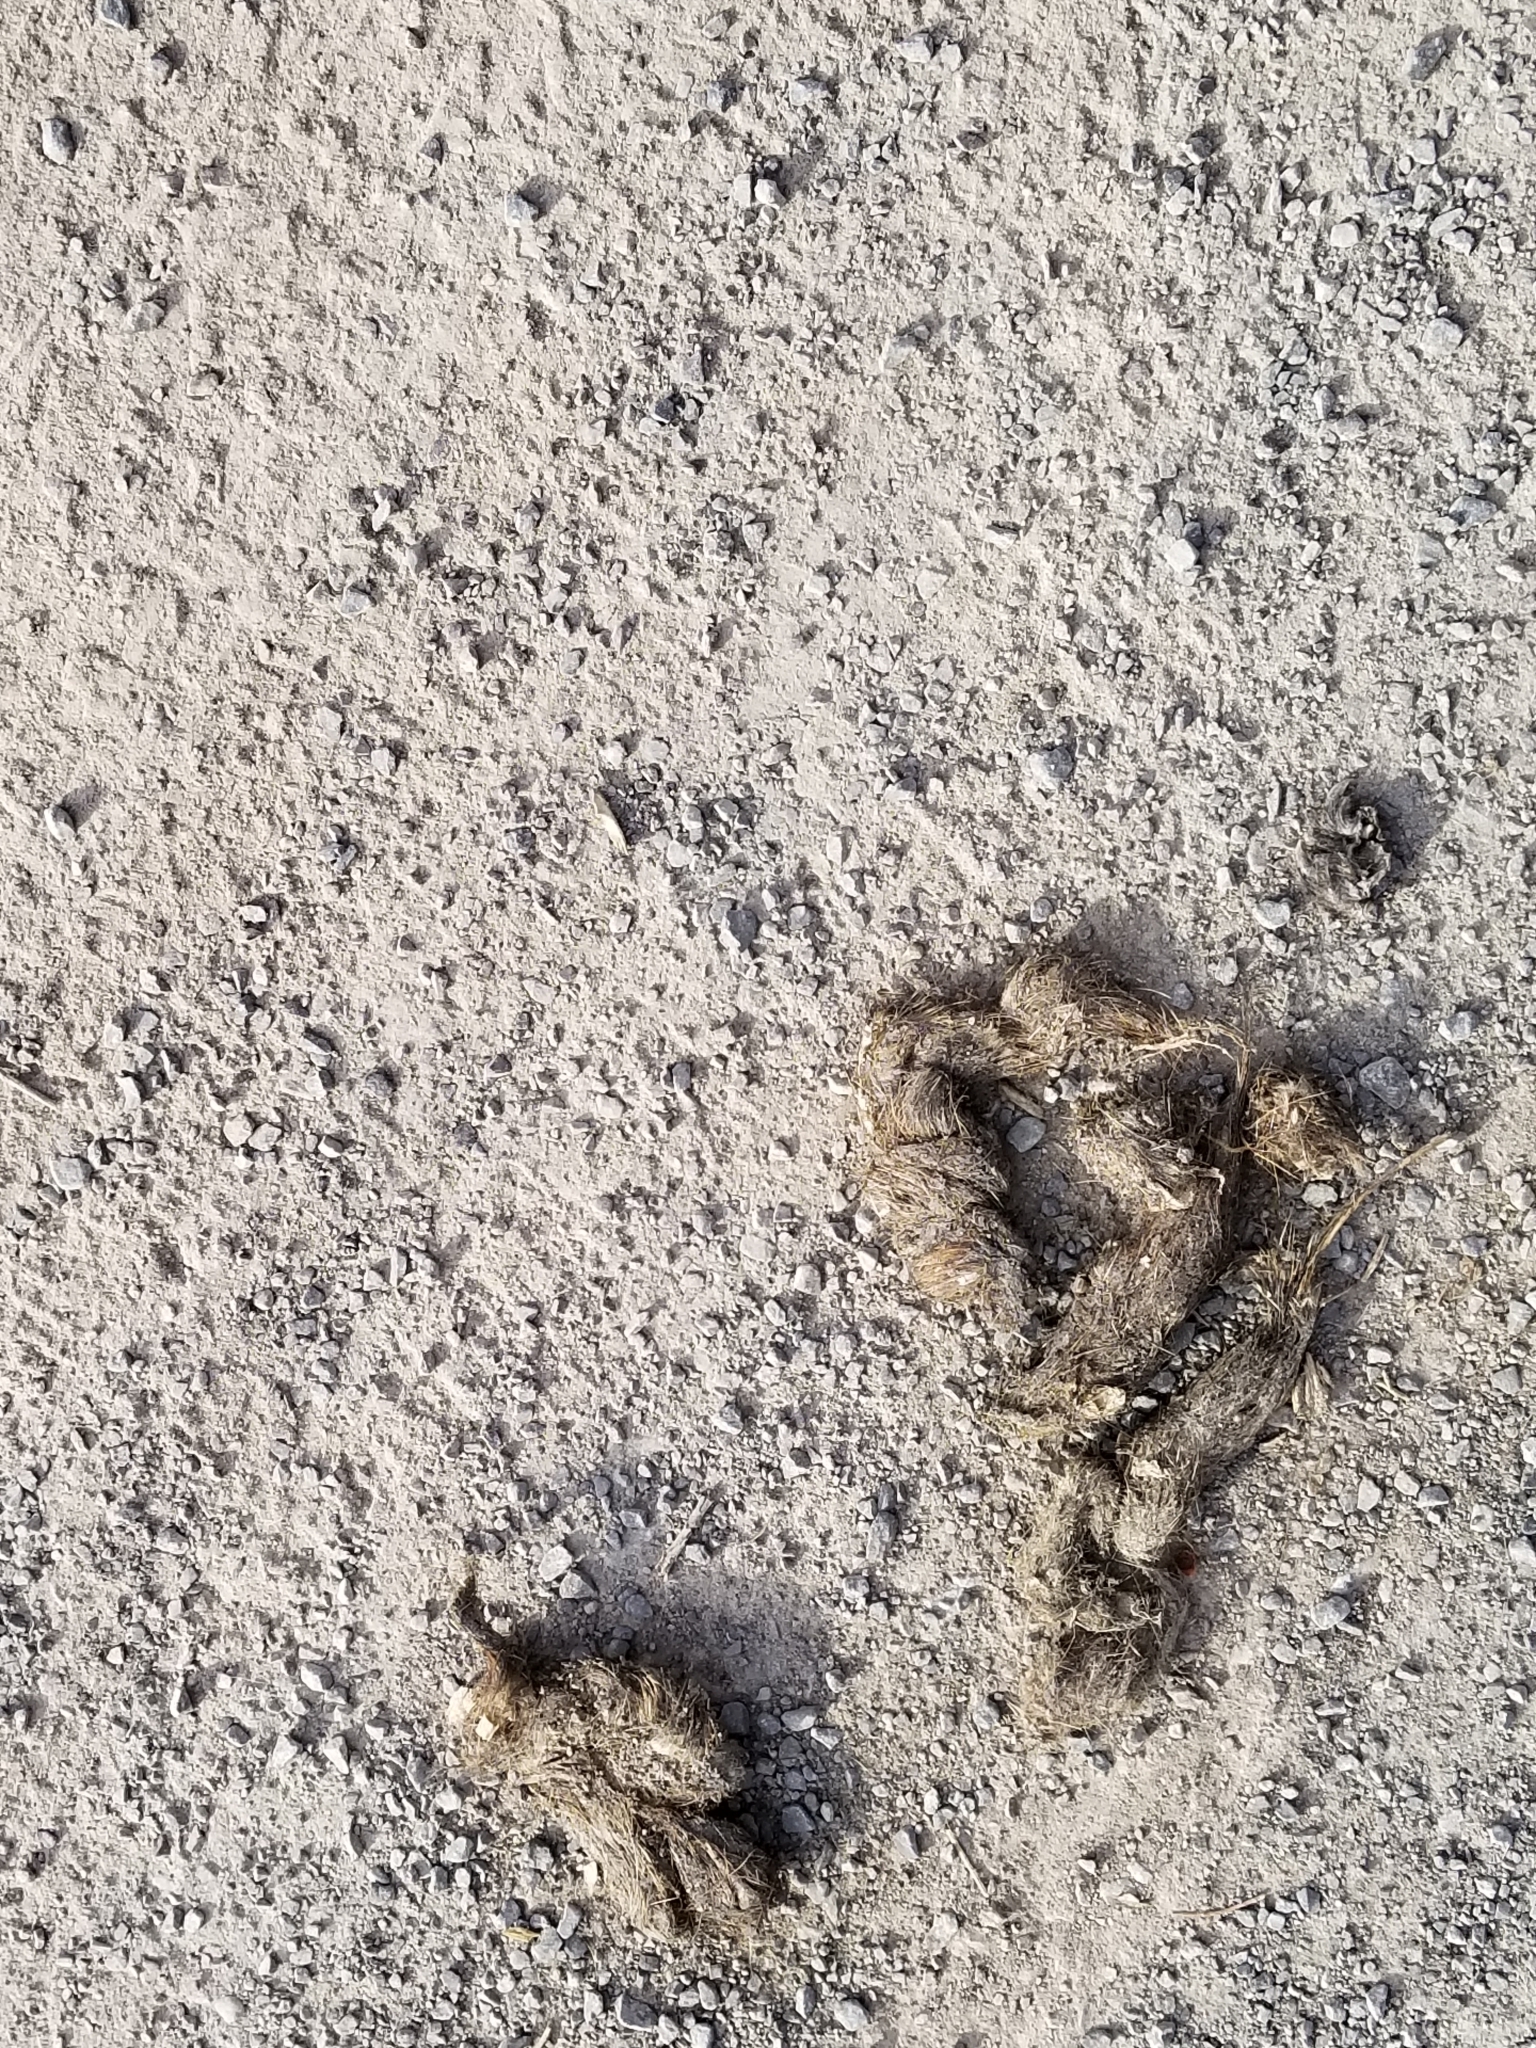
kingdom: Animalia
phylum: Chordata
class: Mammalia
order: Carnivora
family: Canidae
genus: Canis
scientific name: Canis latrans
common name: Coyote
